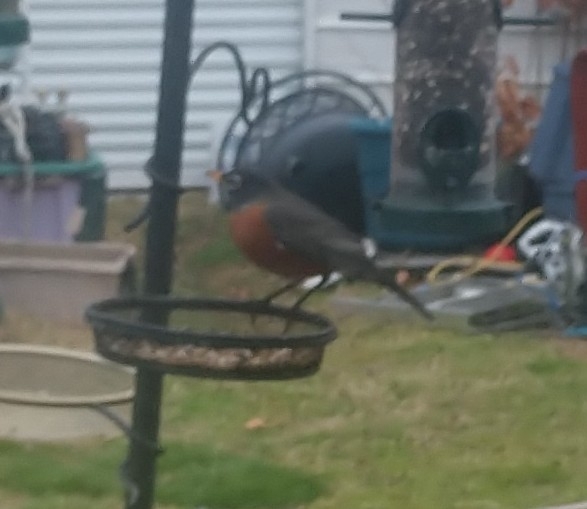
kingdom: Animalia
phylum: Chordata
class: Aves
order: Passeriformes
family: Turdidae
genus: Turdus
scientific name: Turdus migratorius
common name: American robin
